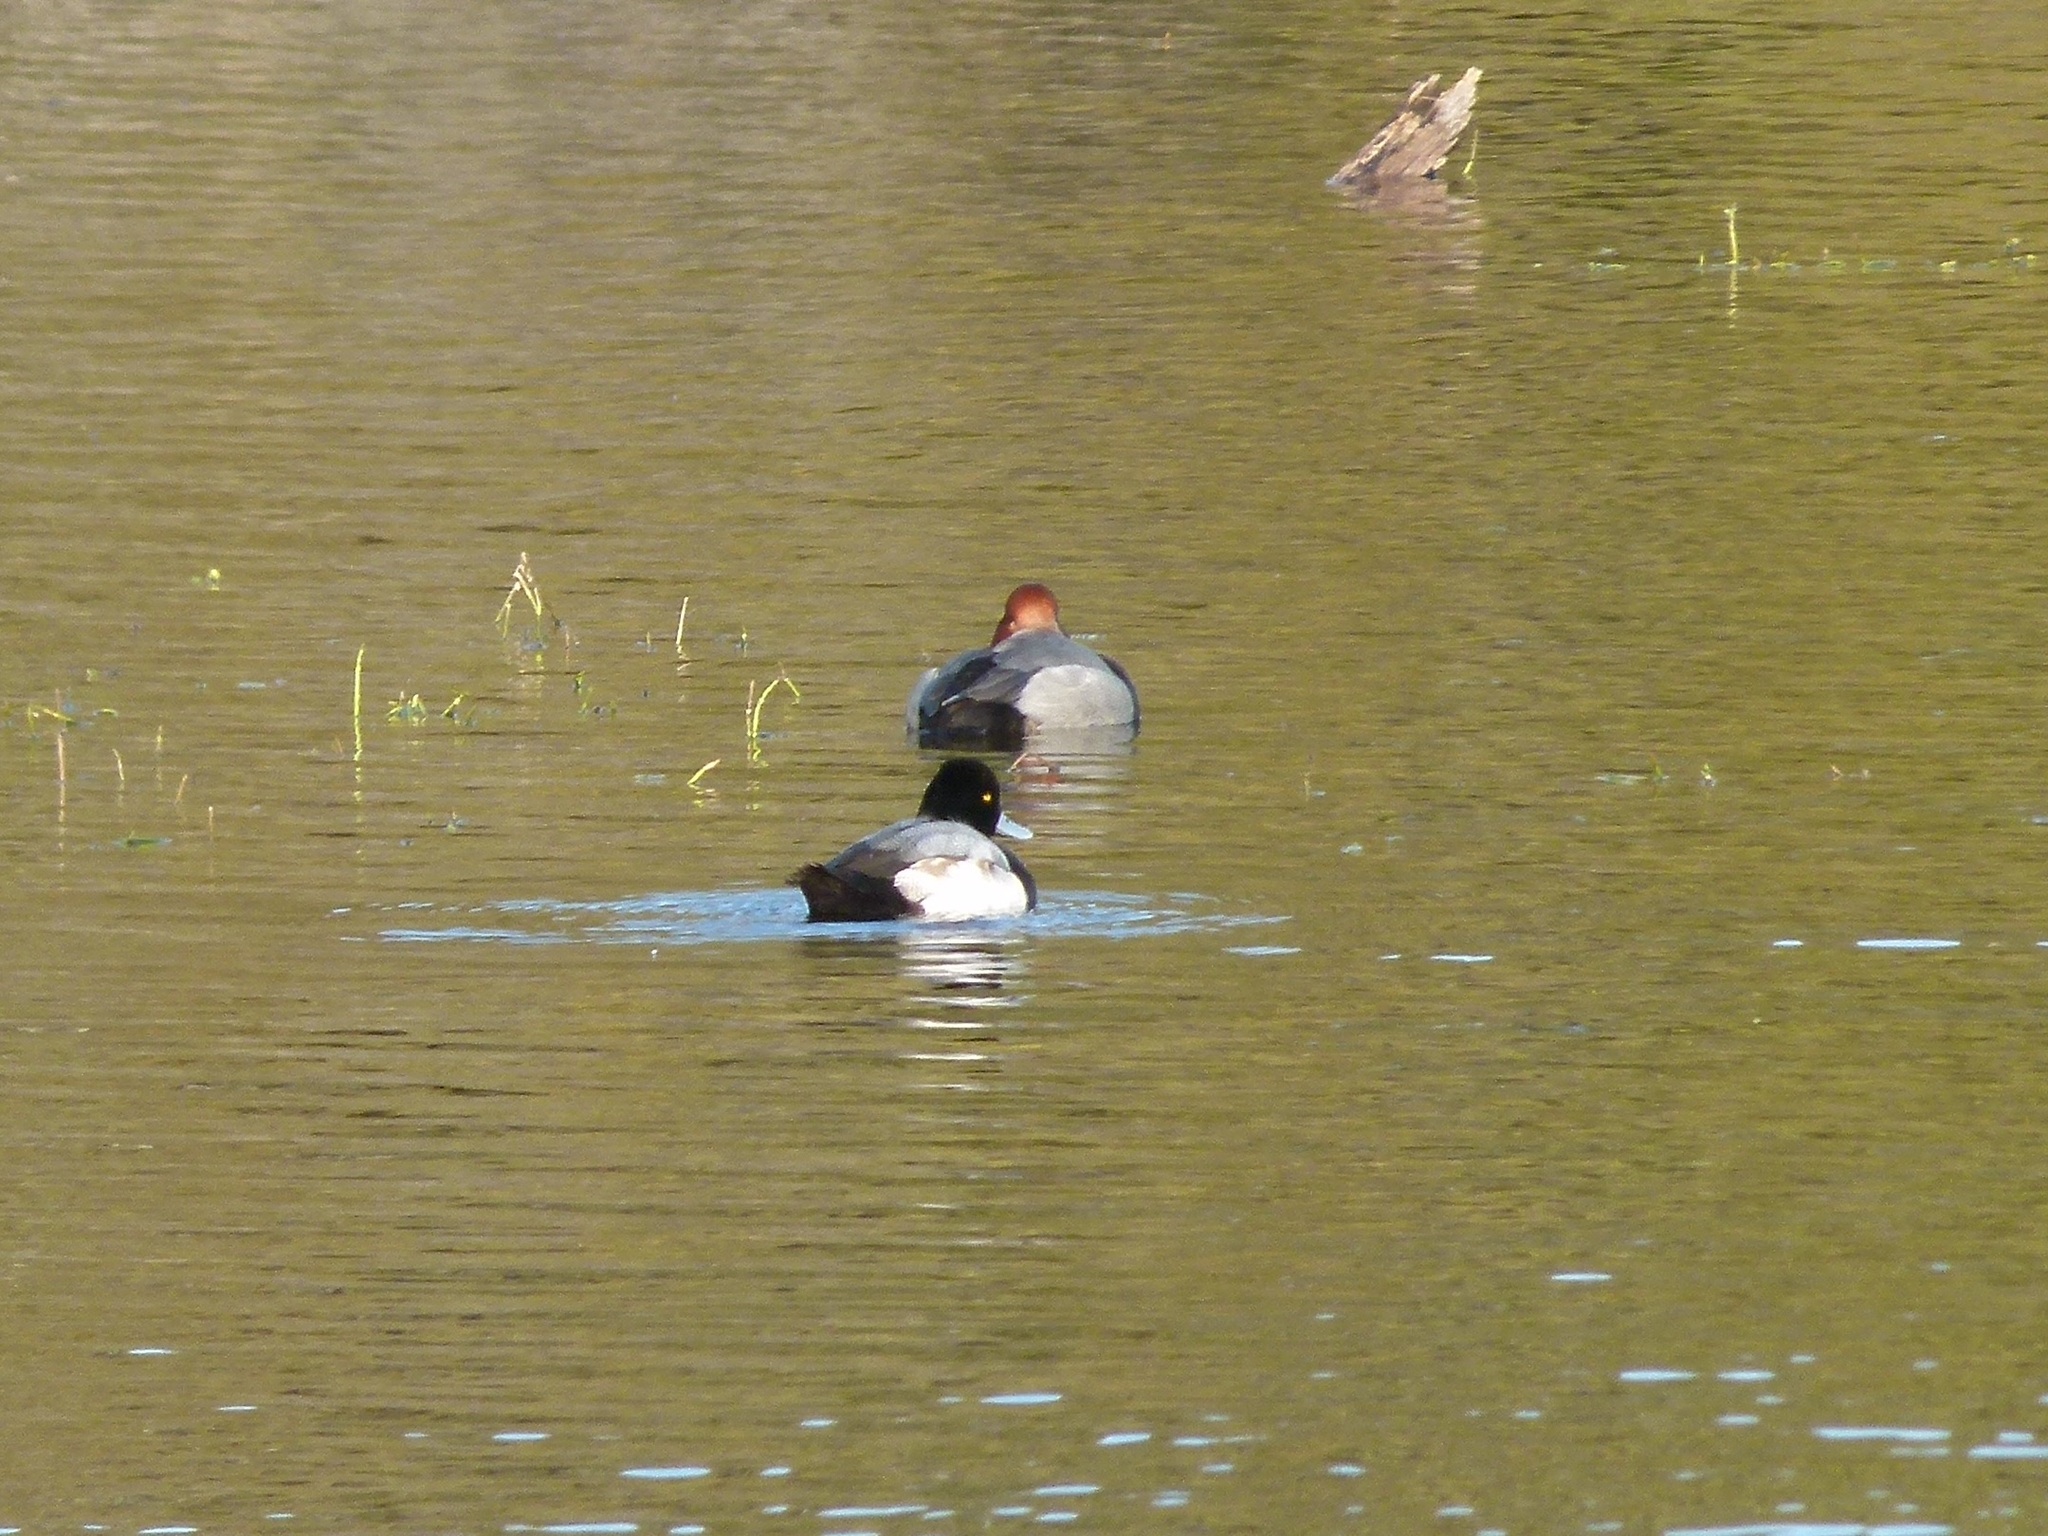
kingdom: Animalia
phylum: Chordata
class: Aves
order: Anseriformes
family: Anatidae
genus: Aythya
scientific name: Aythya affinis
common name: Lesser scaup
